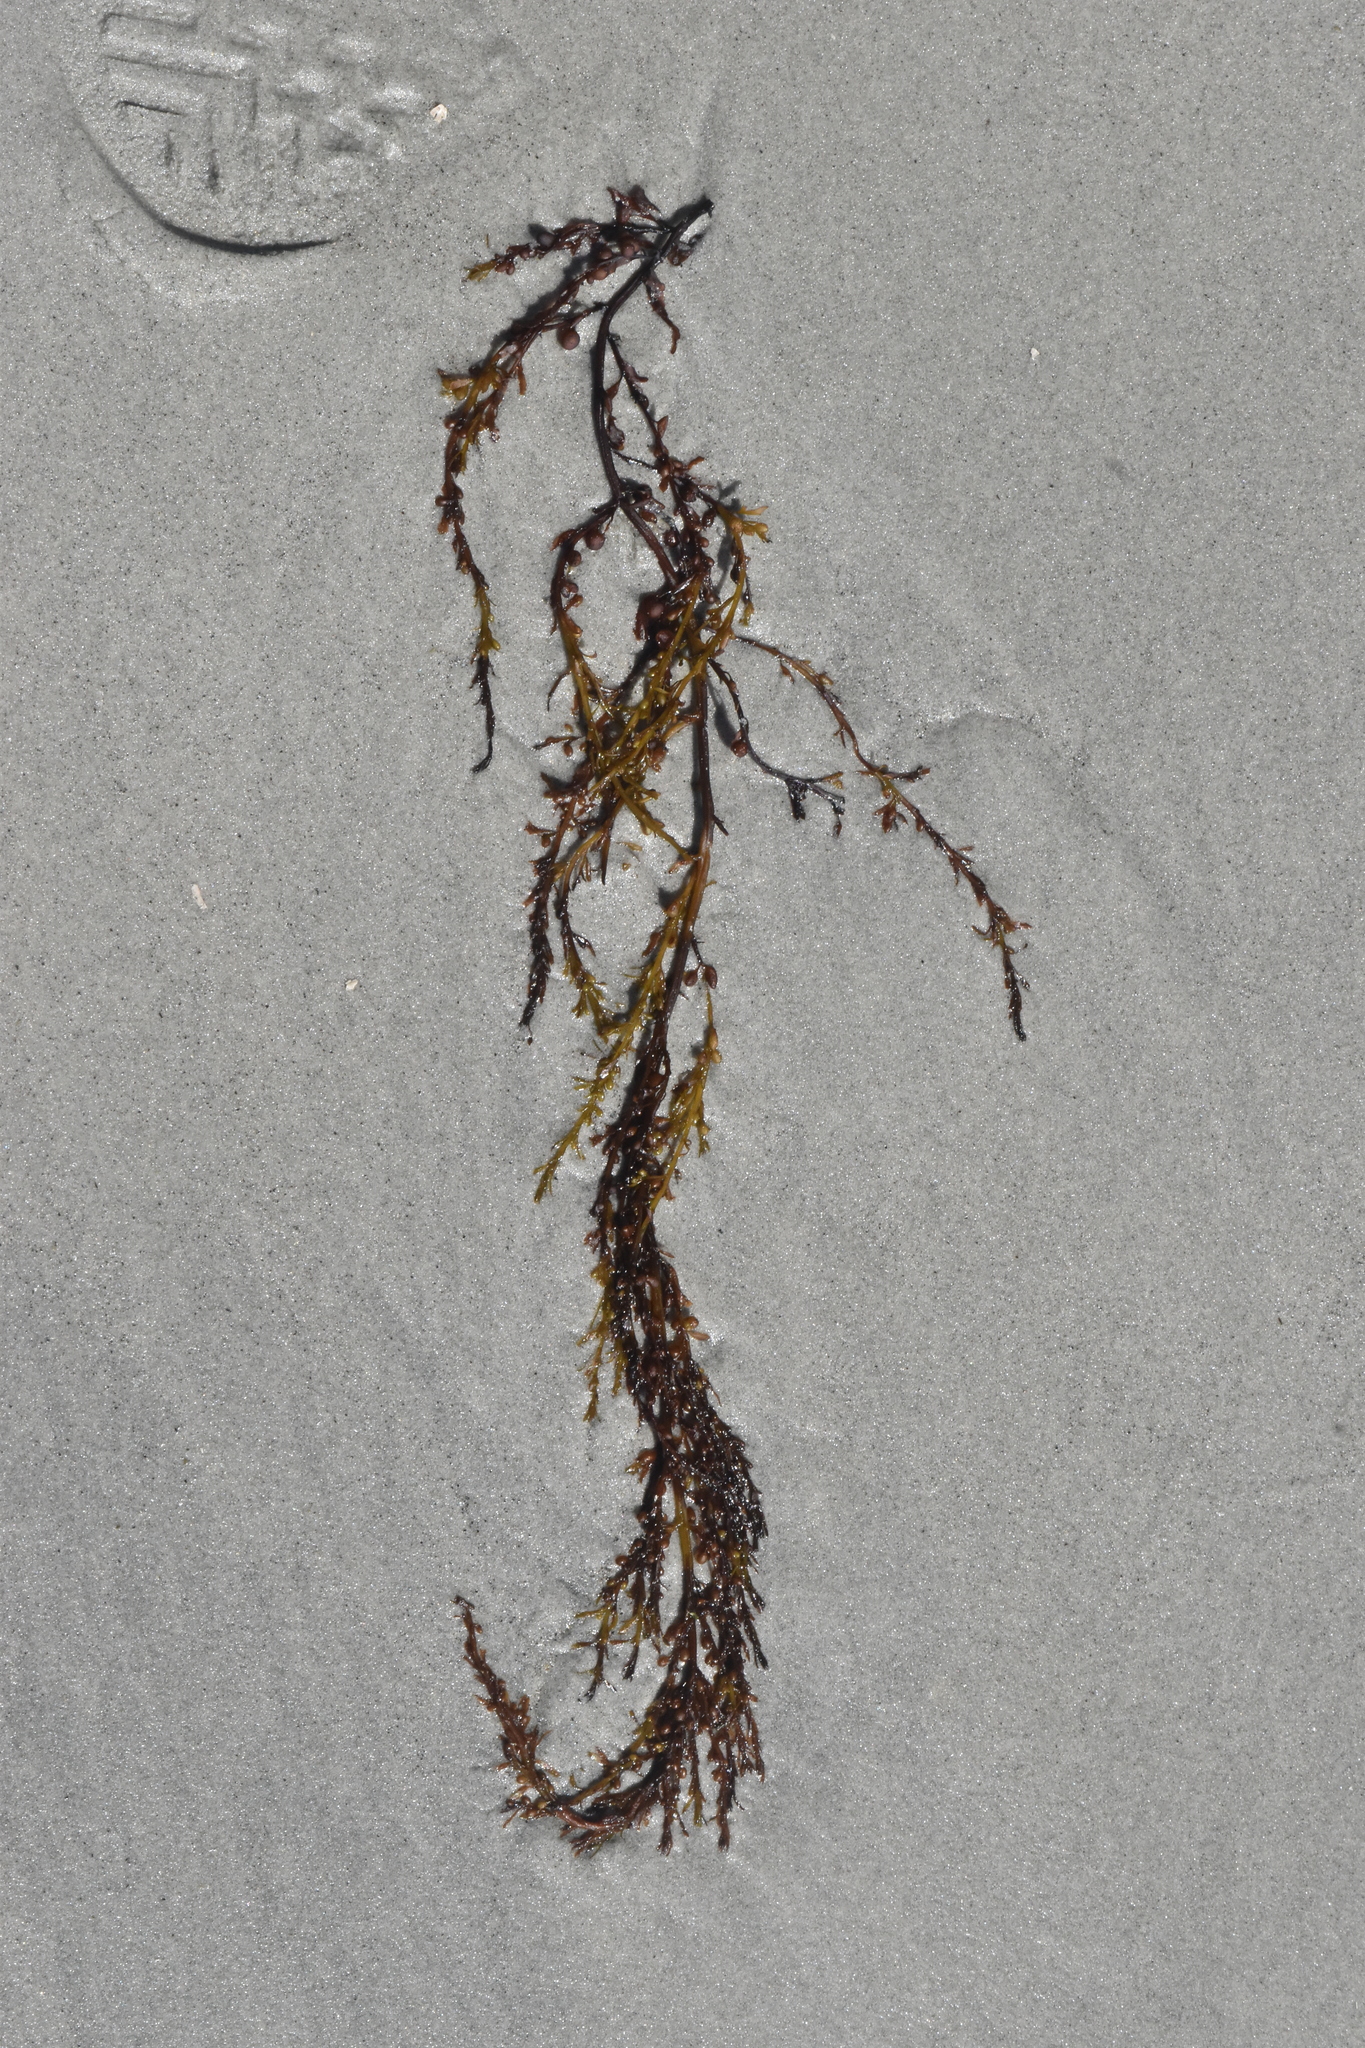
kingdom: Chromista
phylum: Ochrophyta
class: Phaeophyceae
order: Fucales
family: Sargassaceae
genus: Sargassum
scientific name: Sargassum muticum
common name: Japweed
